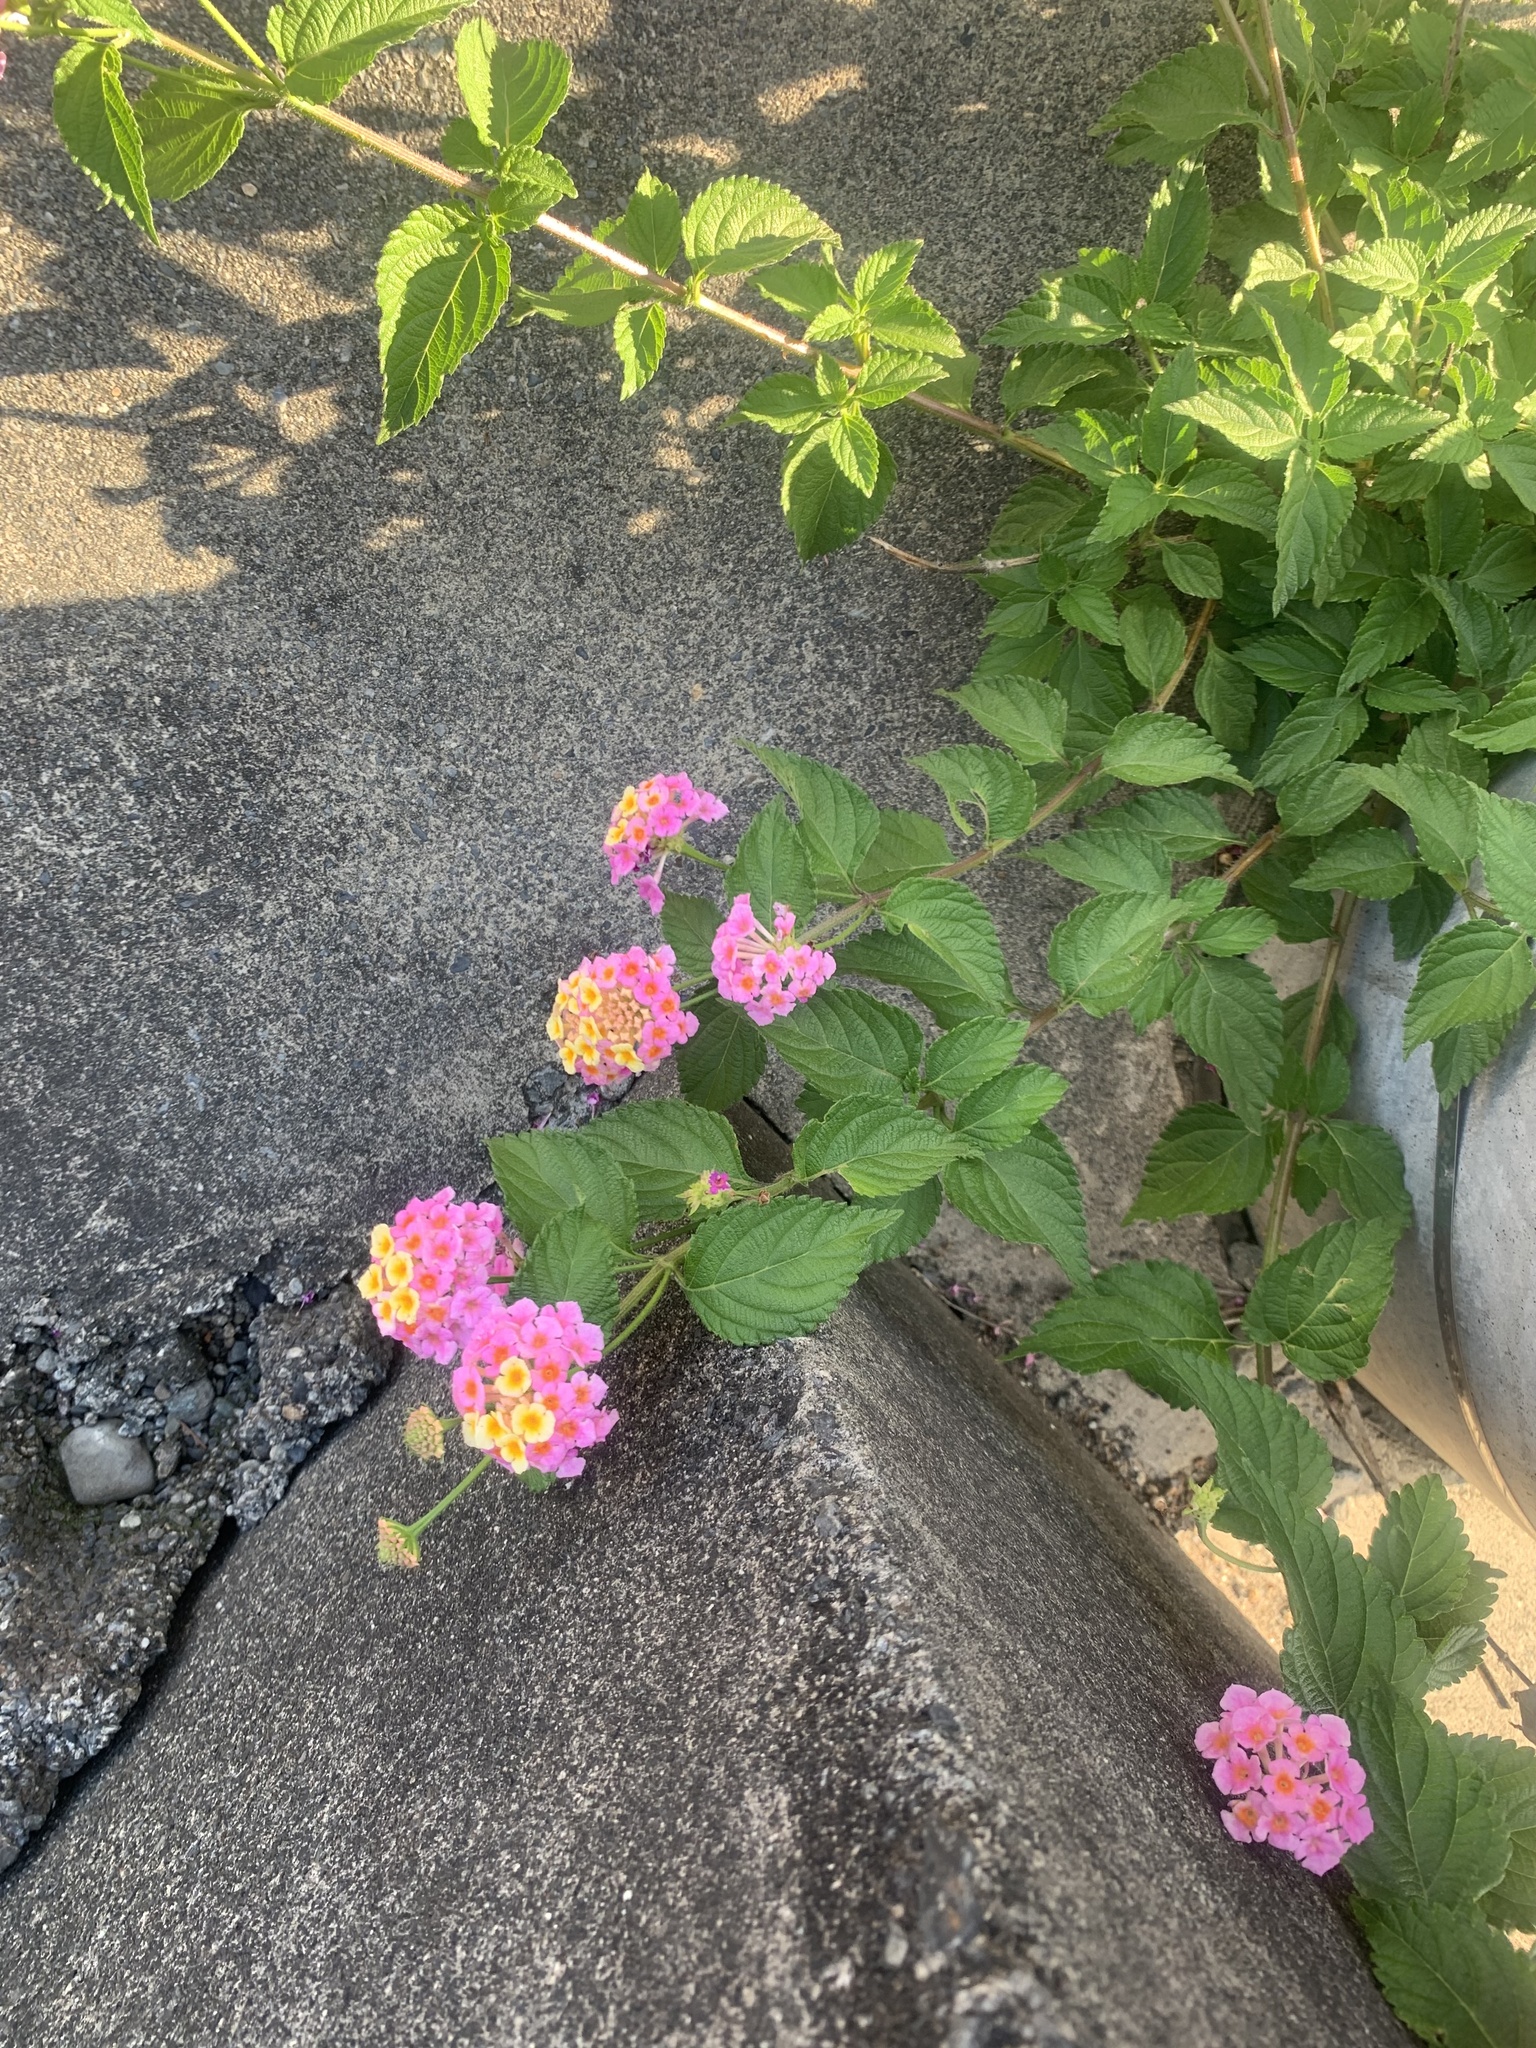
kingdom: Plantae
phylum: Tracheophyta
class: Magnoliopsida
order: Lamiales
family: Verbenaceae
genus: Lantana
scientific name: Lantana camara
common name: Lantana
